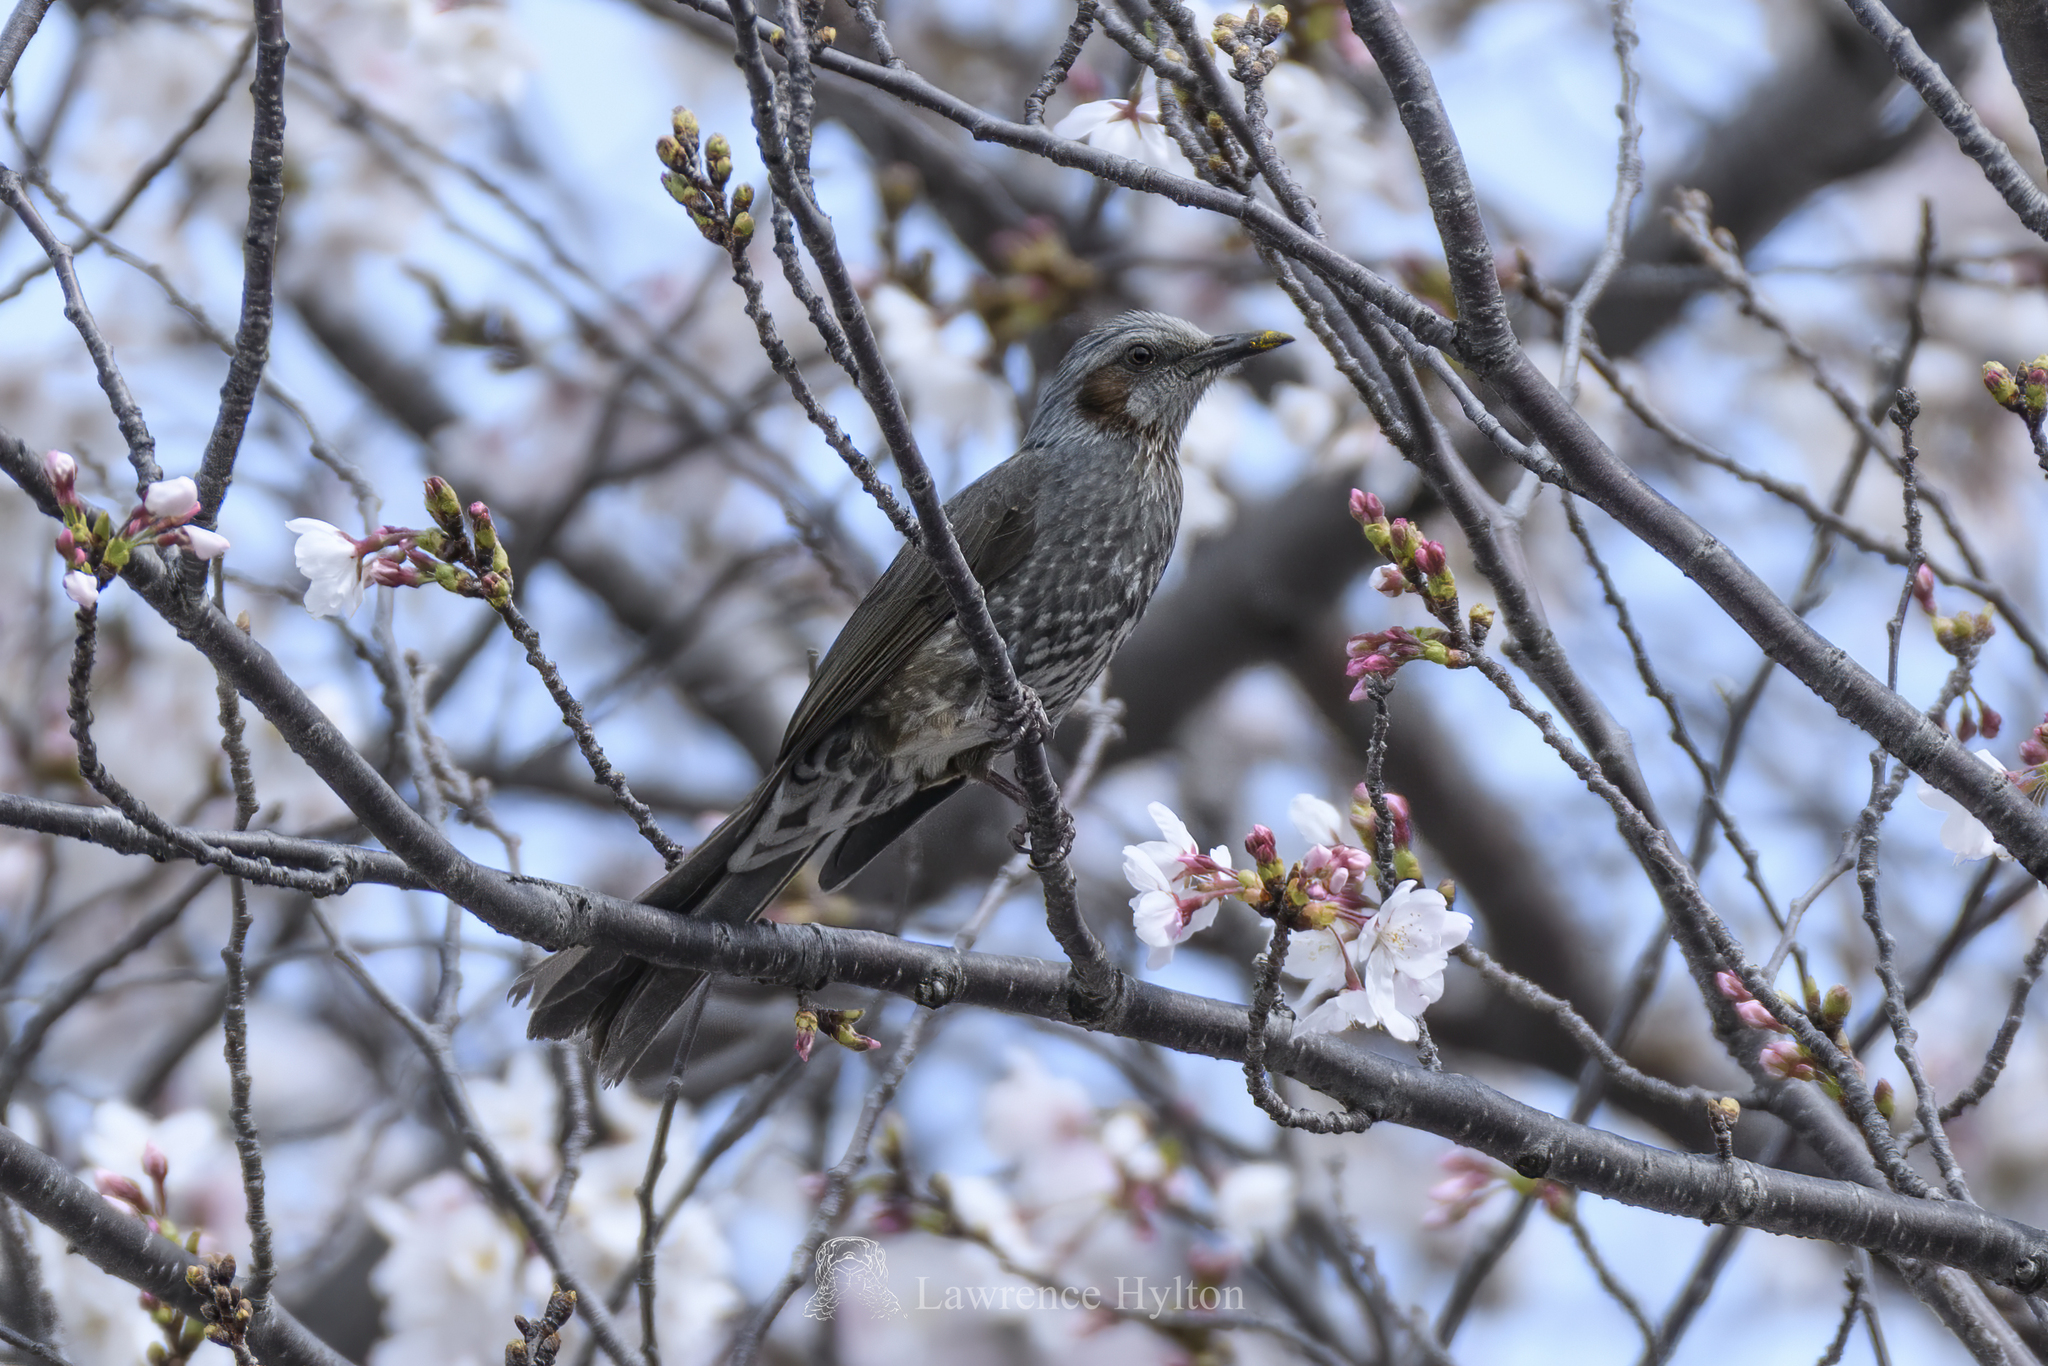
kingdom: Animalia
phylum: Chordata
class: Aves
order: Passeriformes
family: Pycnonotidae
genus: Hypsipetes
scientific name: Hypsipetes amaurotis
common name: Brown-eared bulbul
